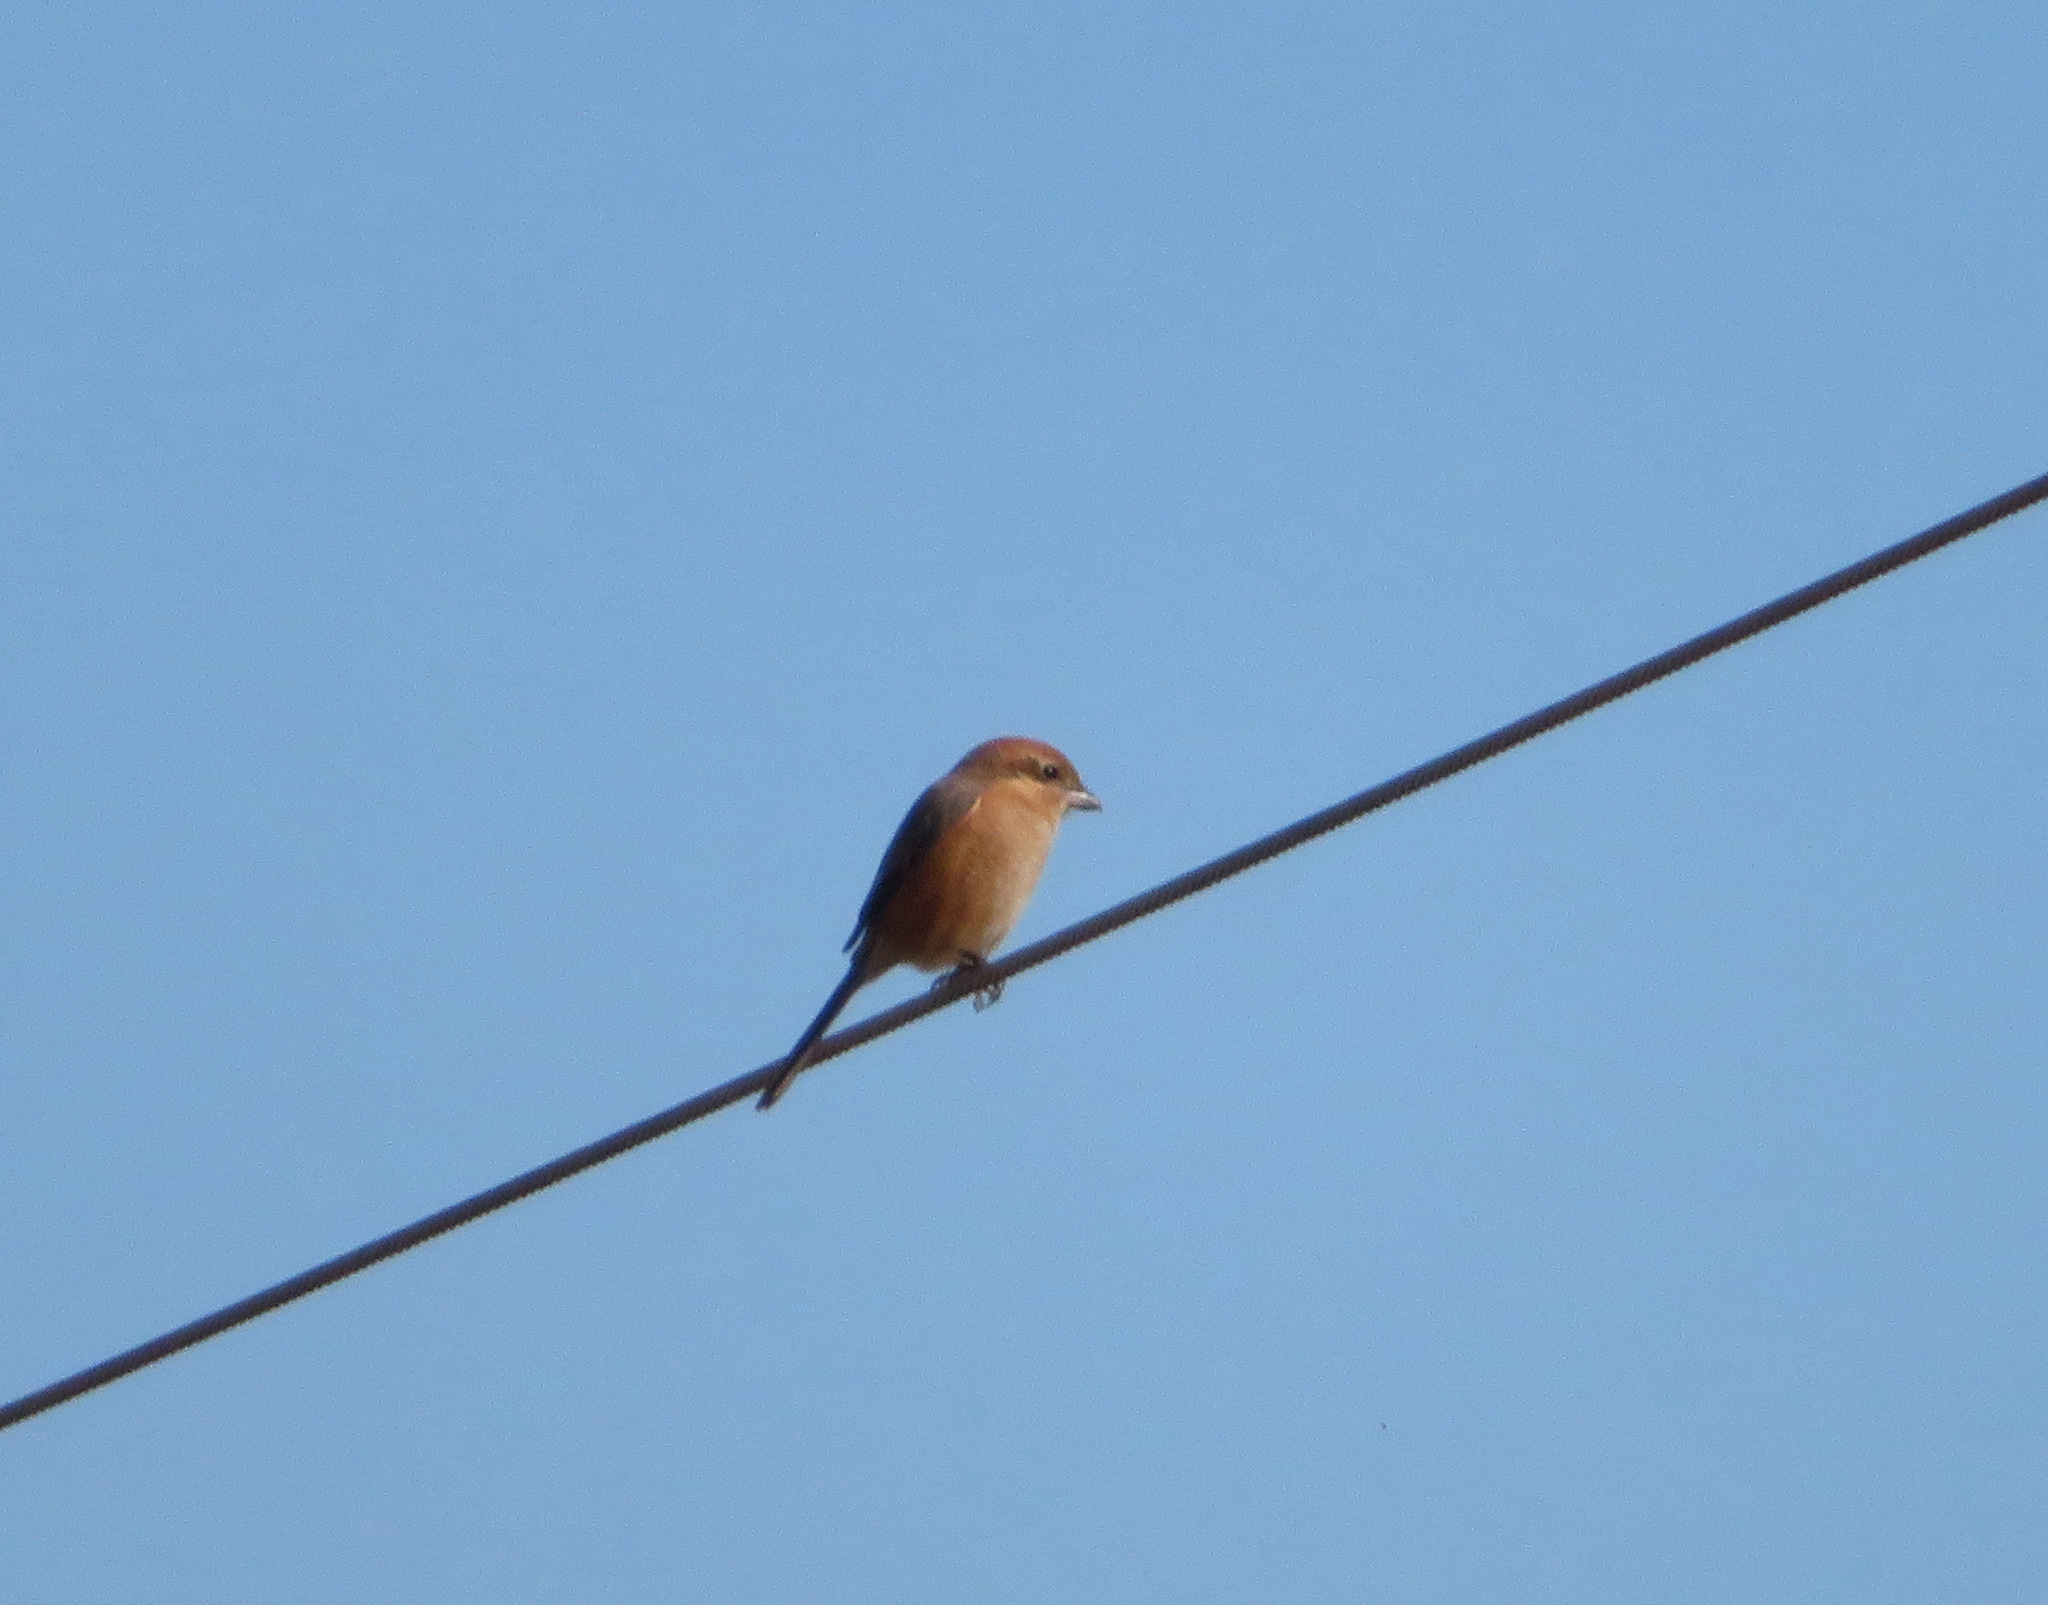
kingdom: Animalia
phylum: Chordata
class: Aves
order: Passeriformes
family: Laniidae
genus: Lanius
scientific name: Lanius bucephalus
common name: Bull-headed shrike
